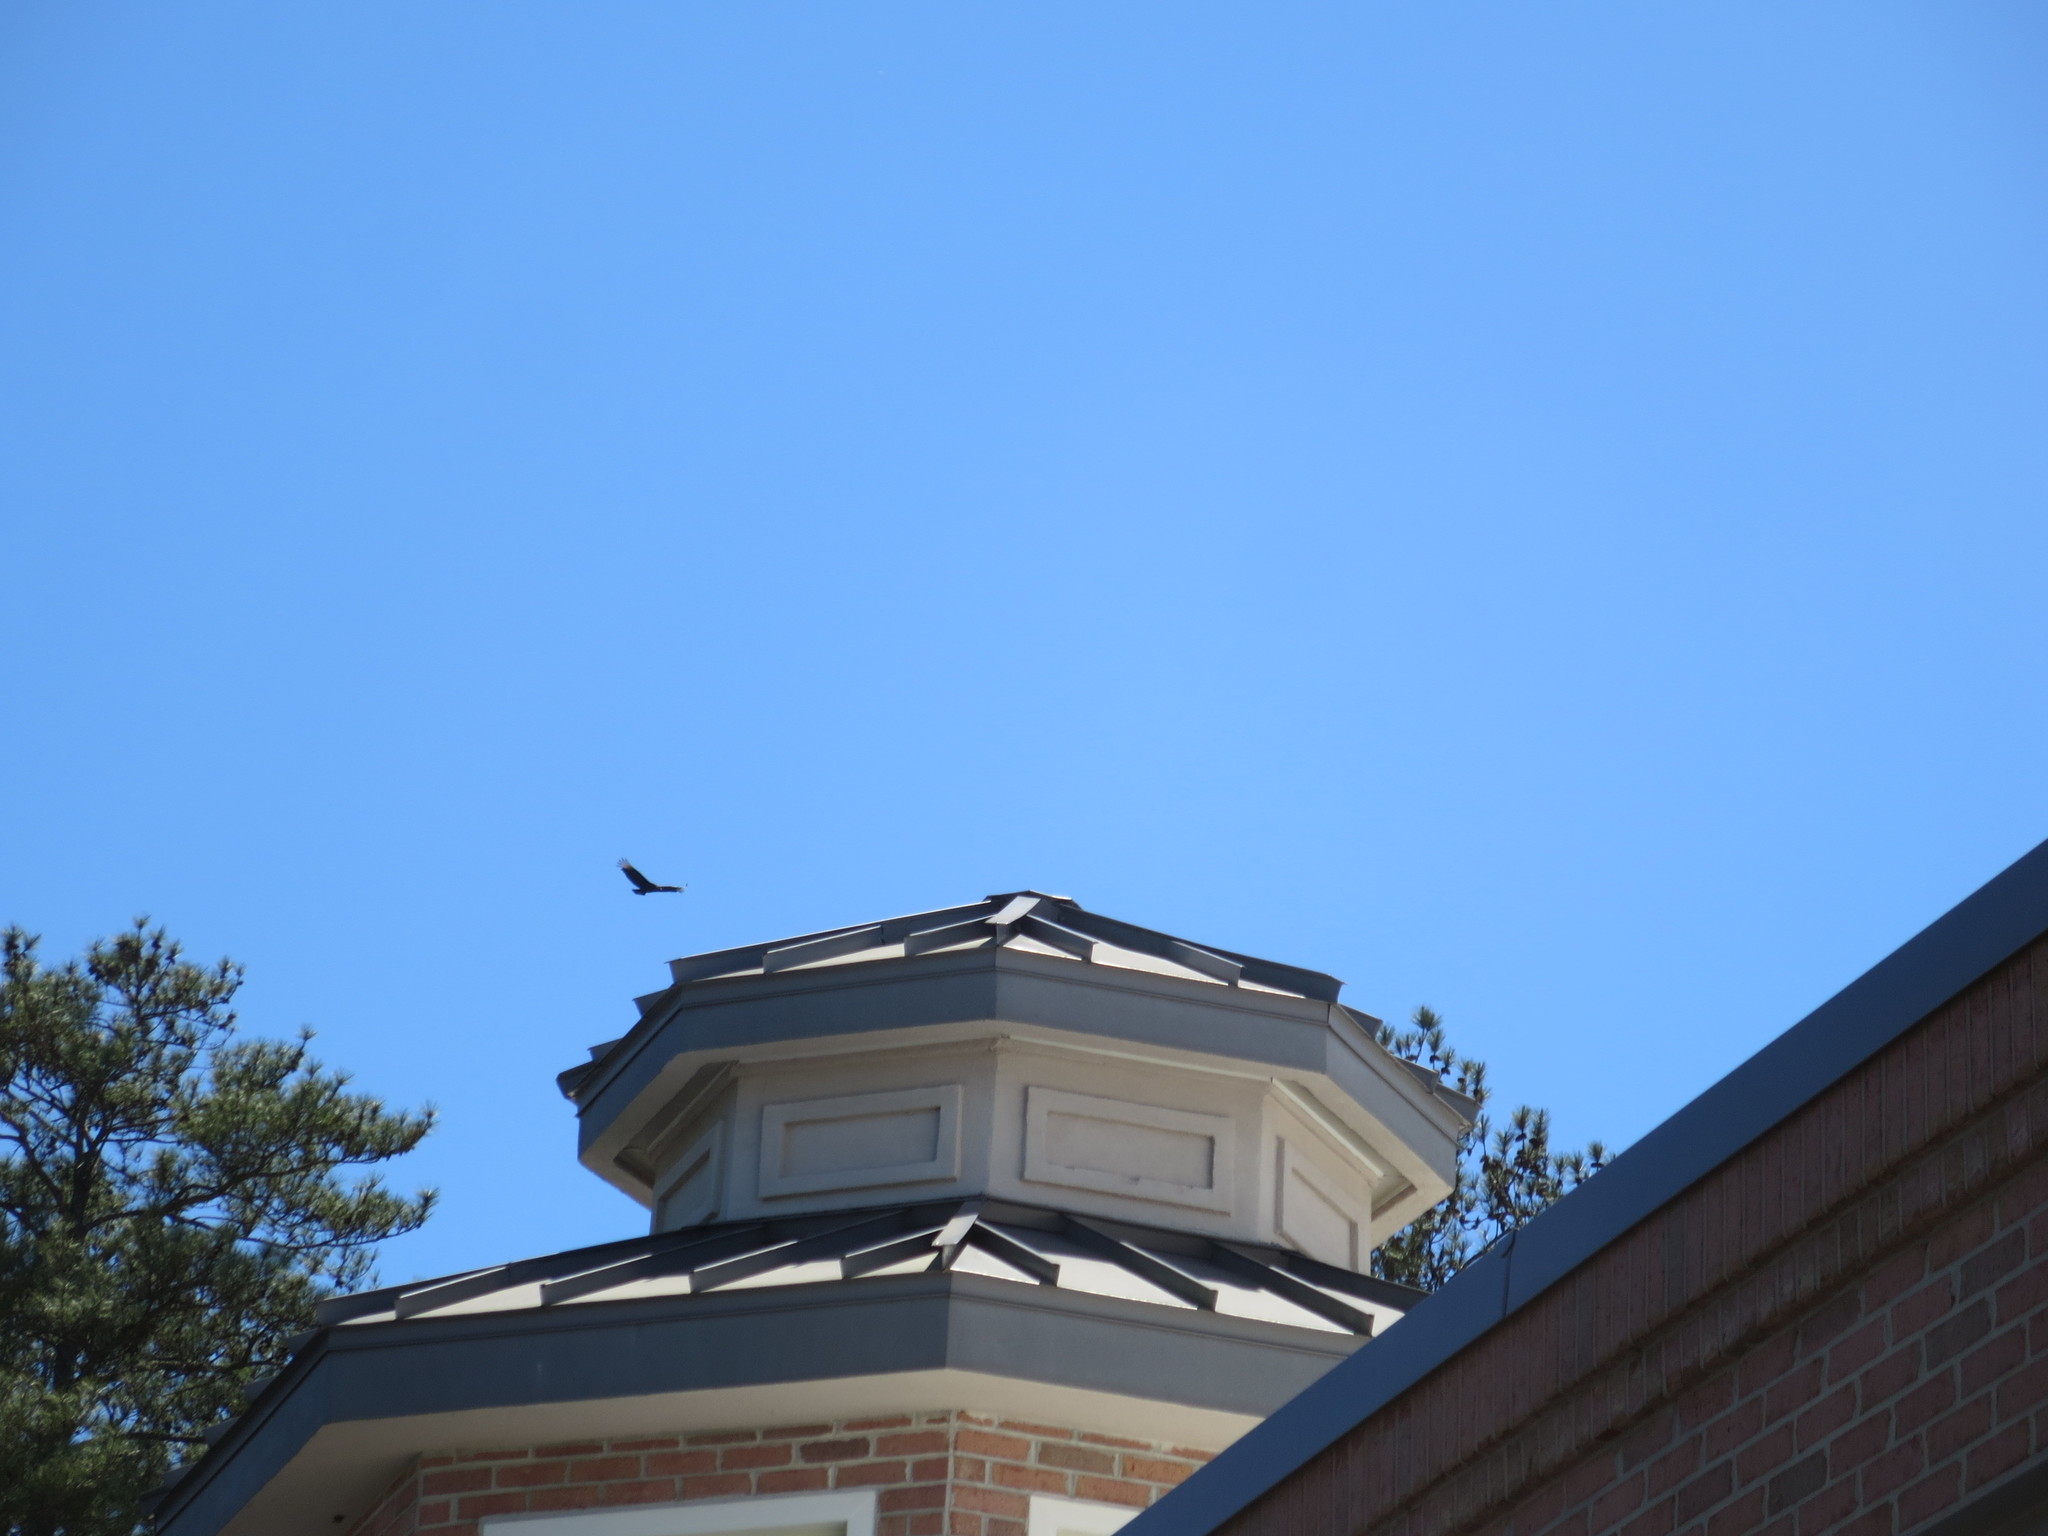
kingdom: Animalia
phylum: Chordata
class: Aves
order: Accipitriformes
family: Cathartidae
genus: Coragyps
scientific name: Coragyps atratus
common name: Black vulture
